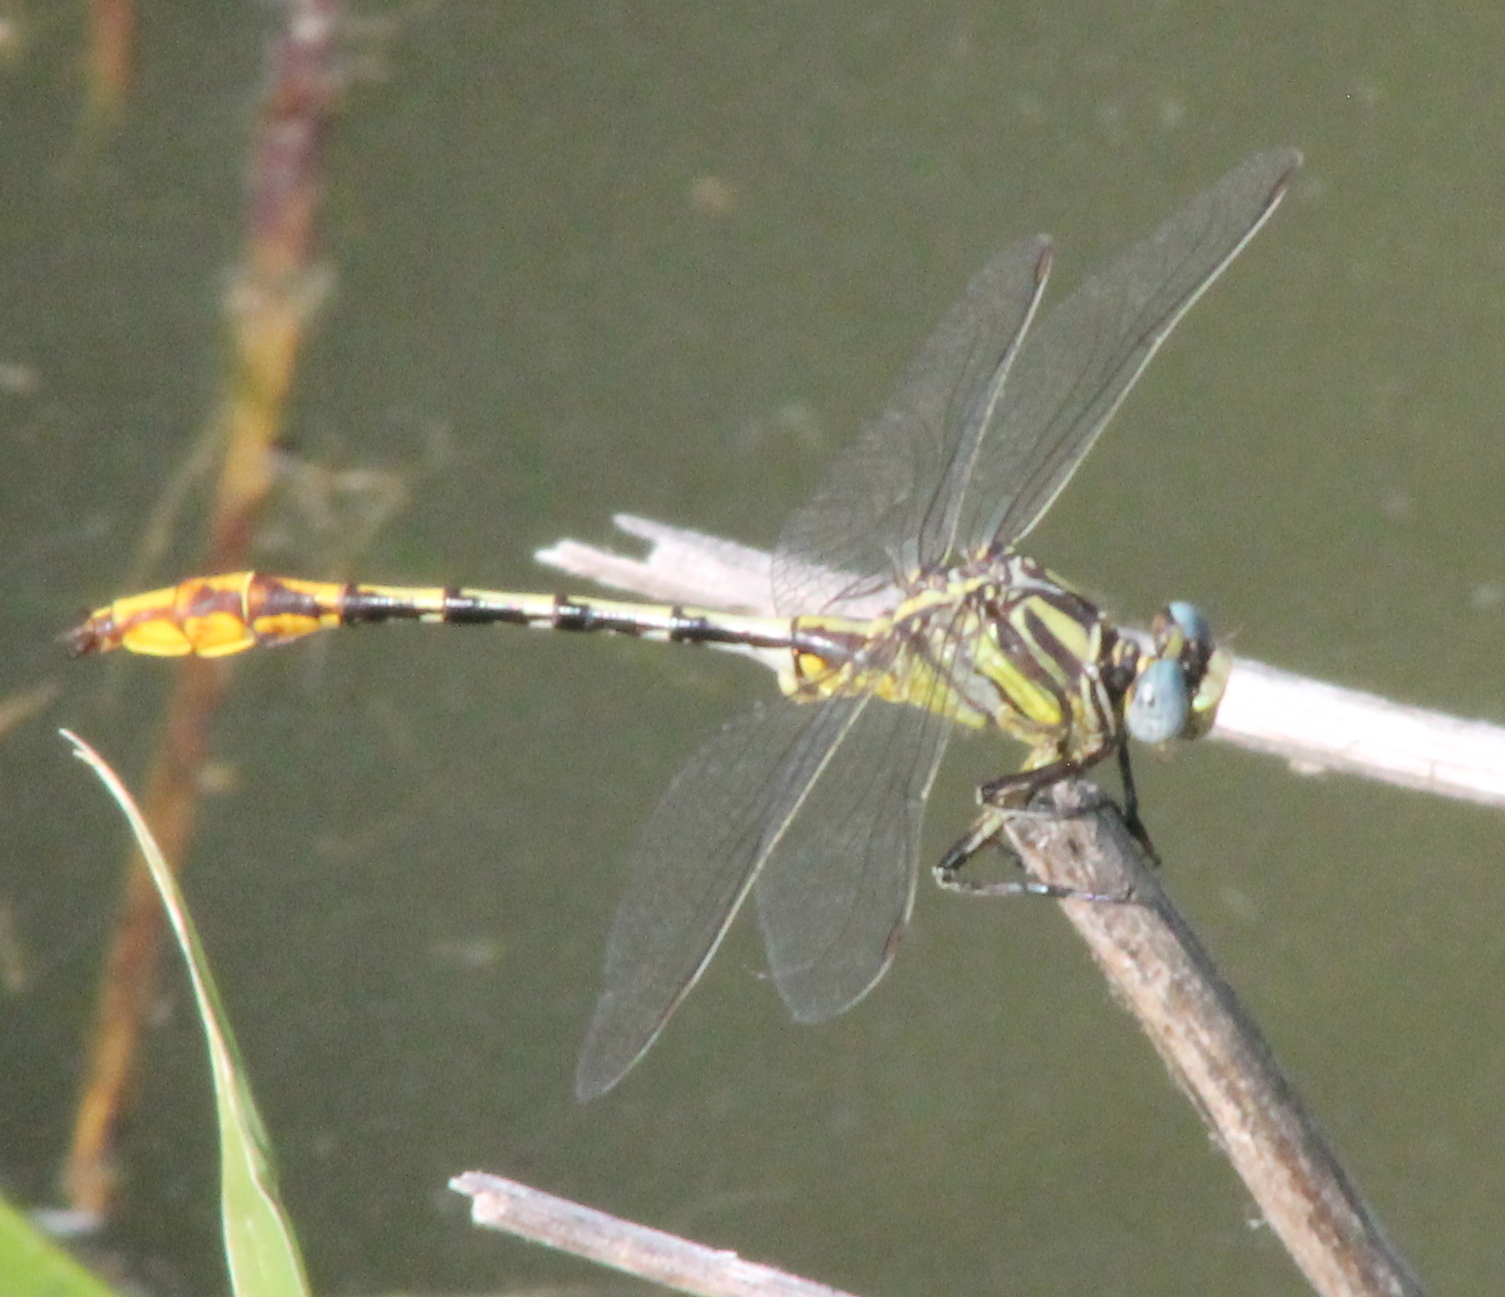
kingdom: Animalia
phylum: Arthropoda
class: Insecta
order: Odonata
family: Gomphidae
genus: Phanogomphus
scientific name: Phanogomphus militaris
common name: Sulphur-tipped clubtail
